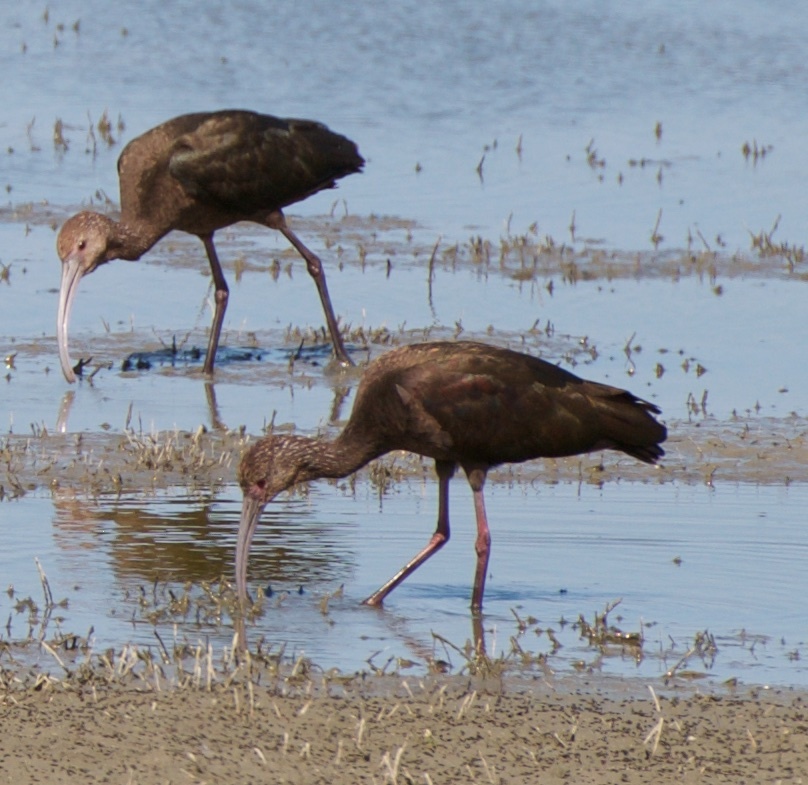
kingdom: Animalia
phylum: Chordata
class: Aves
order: Pelecaniformes
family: Threskiornithidae
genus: Plegadis
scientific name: Plegadis chihi
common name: White-faced ibis
